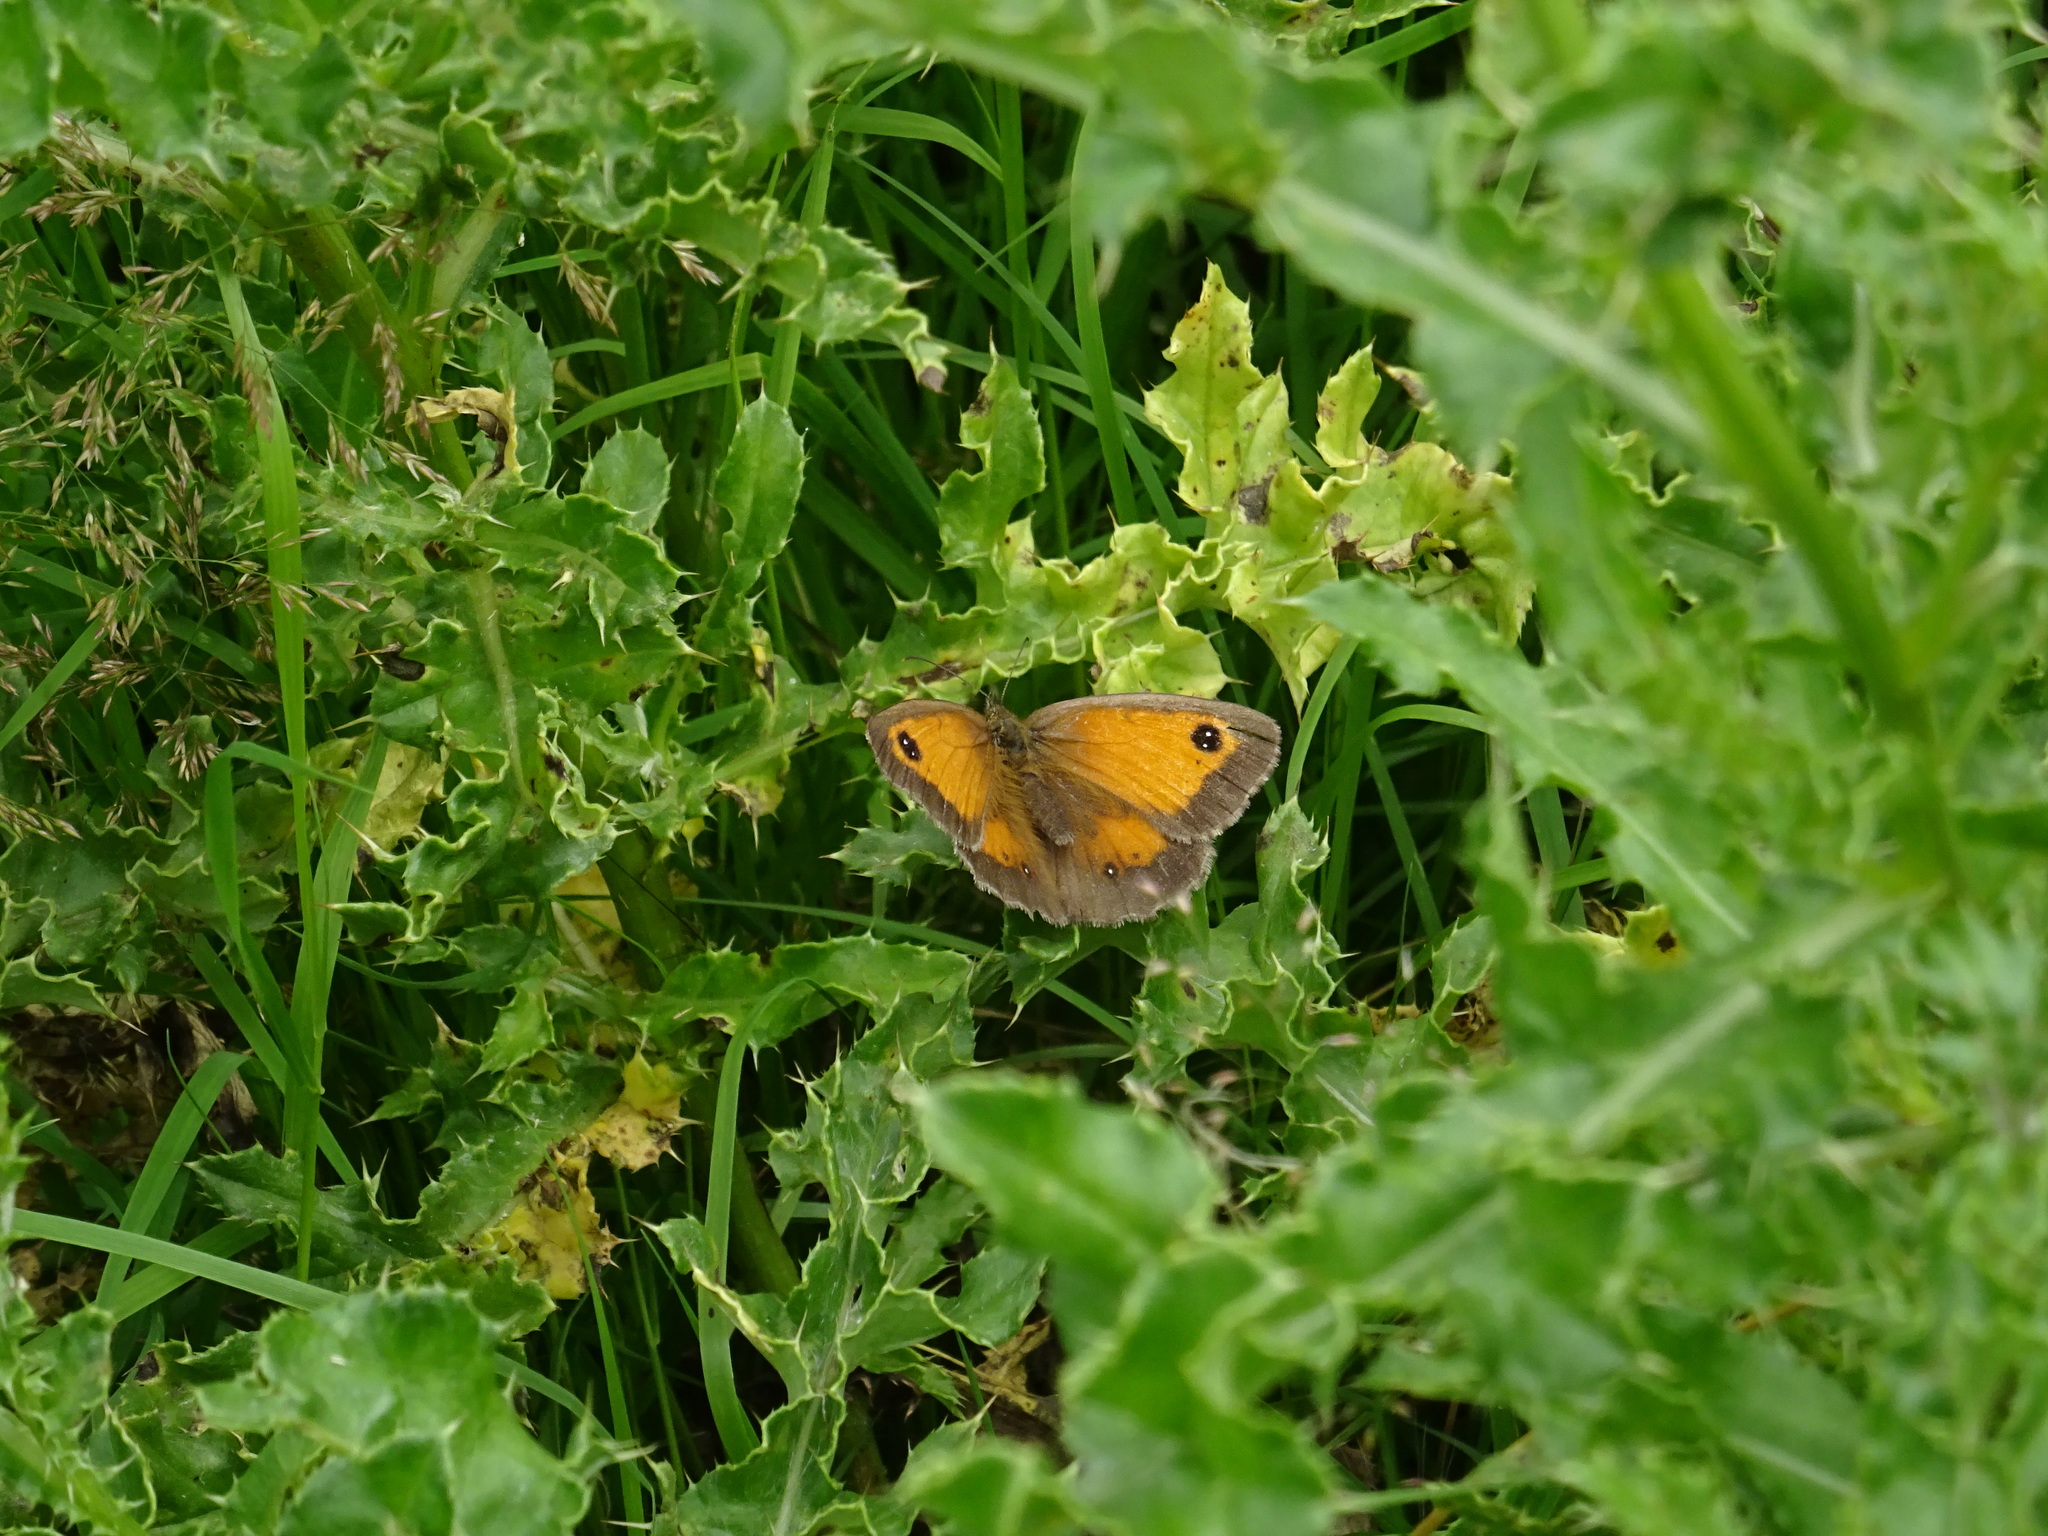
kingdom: Animalia
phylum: Arthropoda
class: Insecta
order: Lepidoptera
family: Nymphalidae
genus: Pyronia
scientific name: Pyronia tithonus
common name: Gatekeeper
